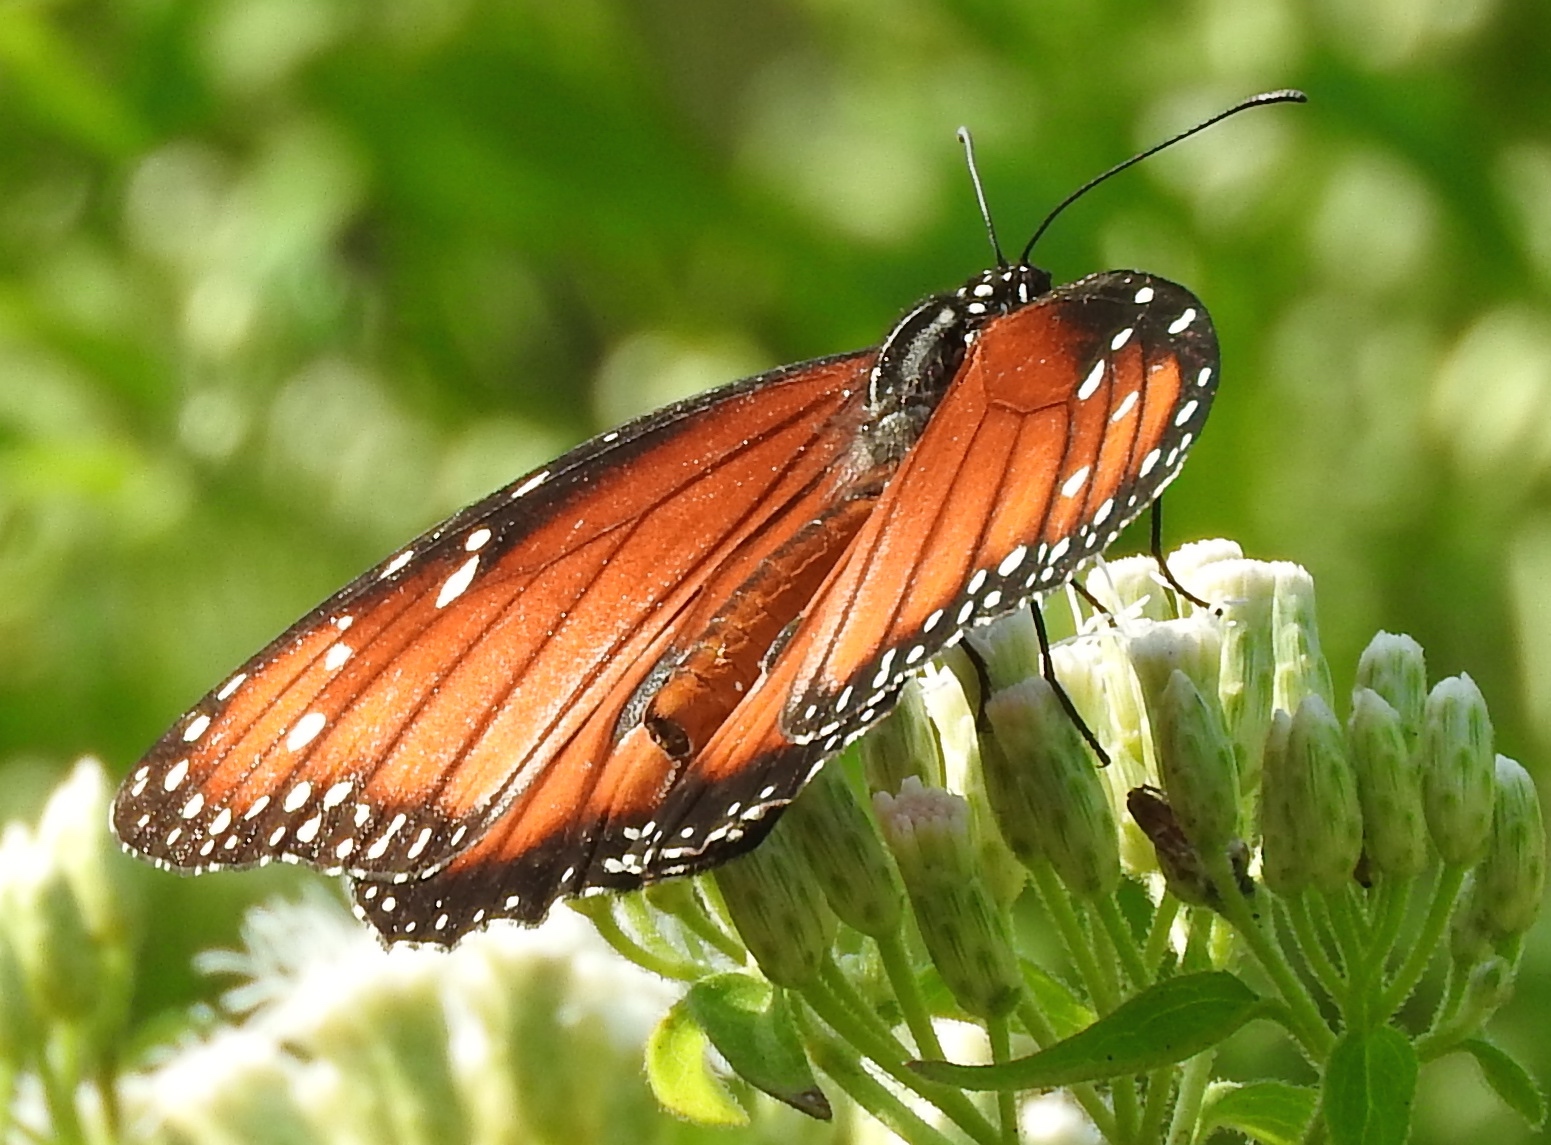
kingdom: Animalia
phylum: Arthropoda
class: Insecta
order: Lepidoptera
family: Nymphalidae
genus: Danaus
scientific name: Danaus eresimus
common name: Soldier
